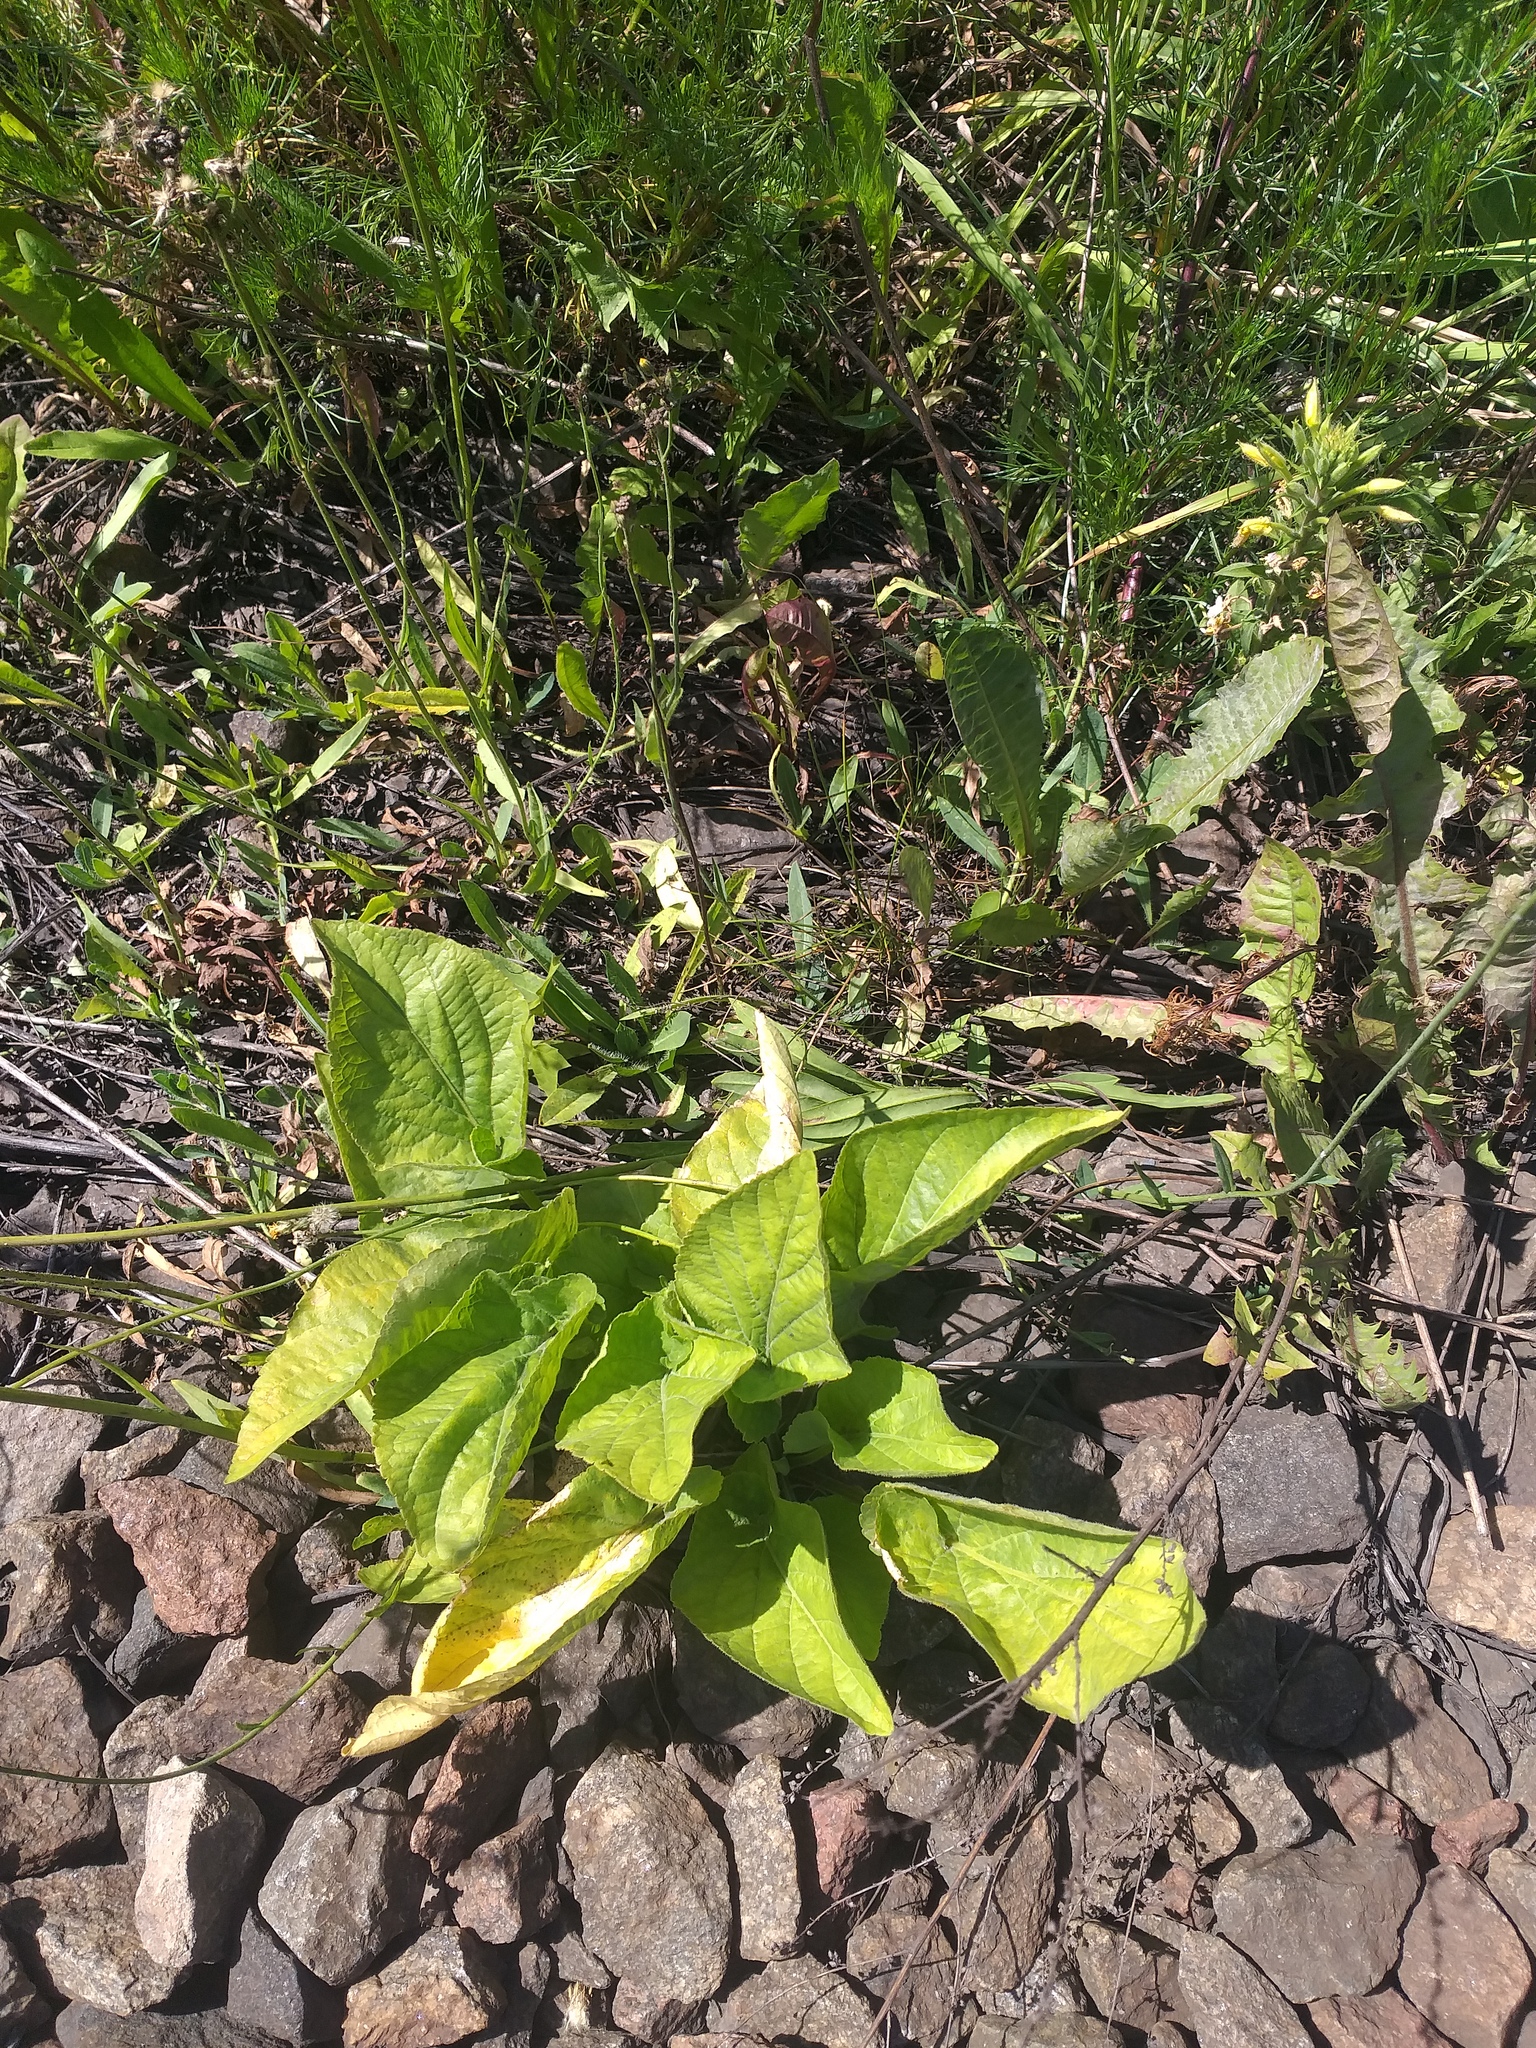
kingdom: Plantae
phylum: Tracheophyta
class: Magnoliopsida
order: Malpighiales
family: Violaceae
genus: Viola
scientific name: Viola hirta
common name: Hairy violet
